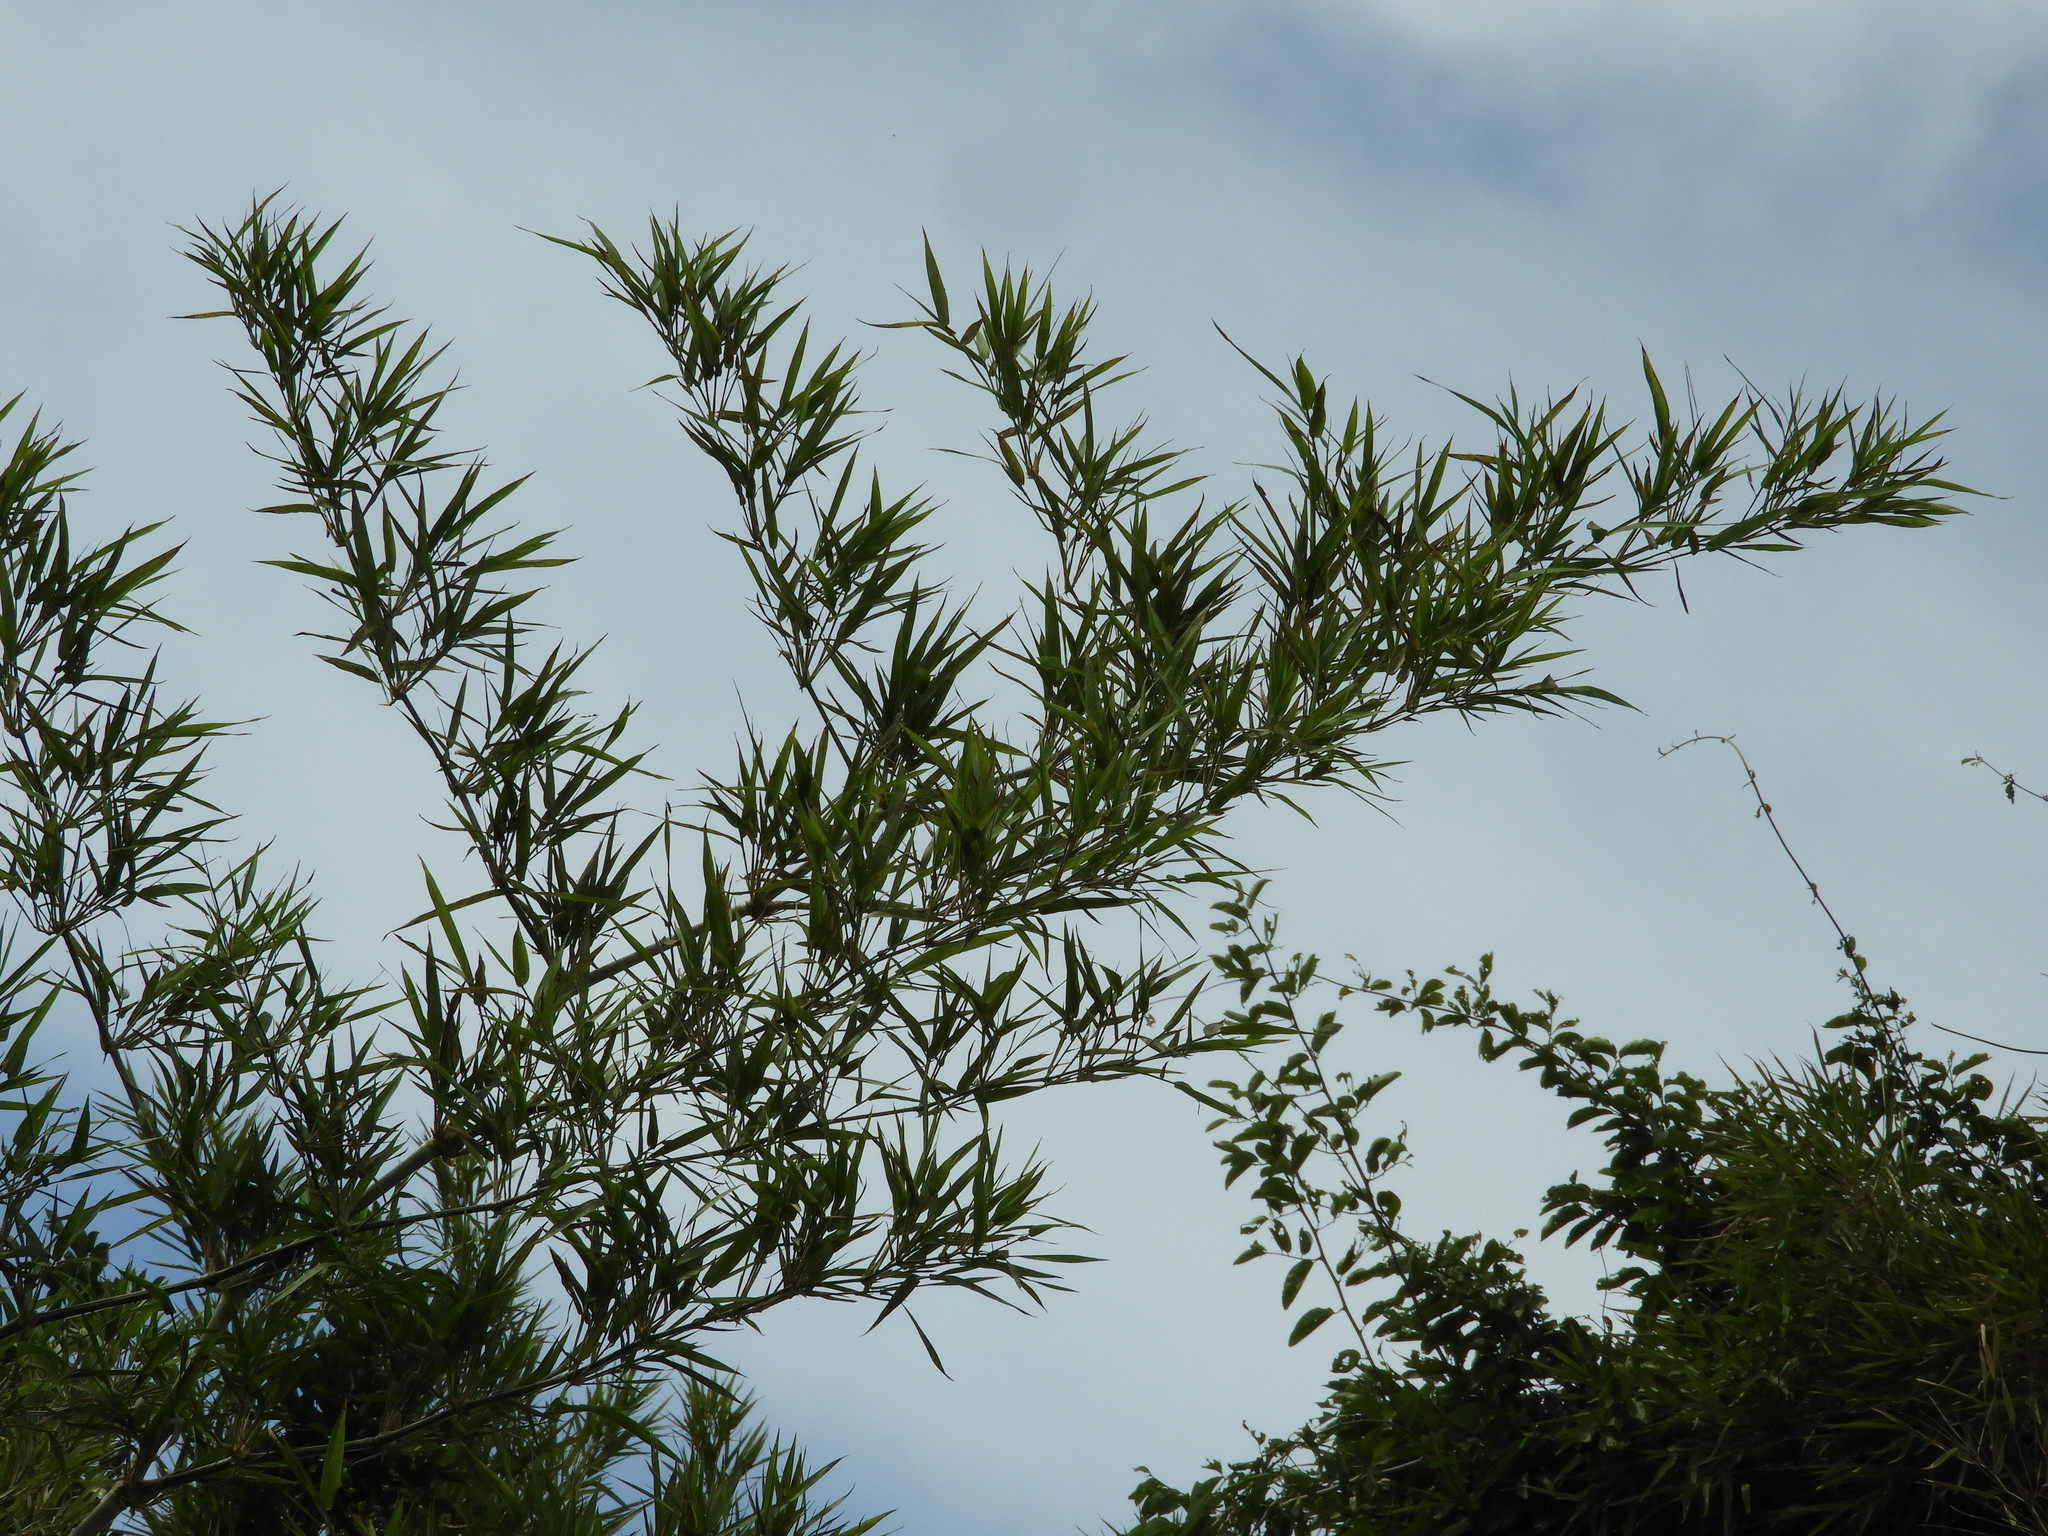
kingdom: Plantae
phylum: Tracheophyta
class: Liliopsida
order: Poales
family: Poaceae
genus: Guadua
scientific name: Guadua paniculata
